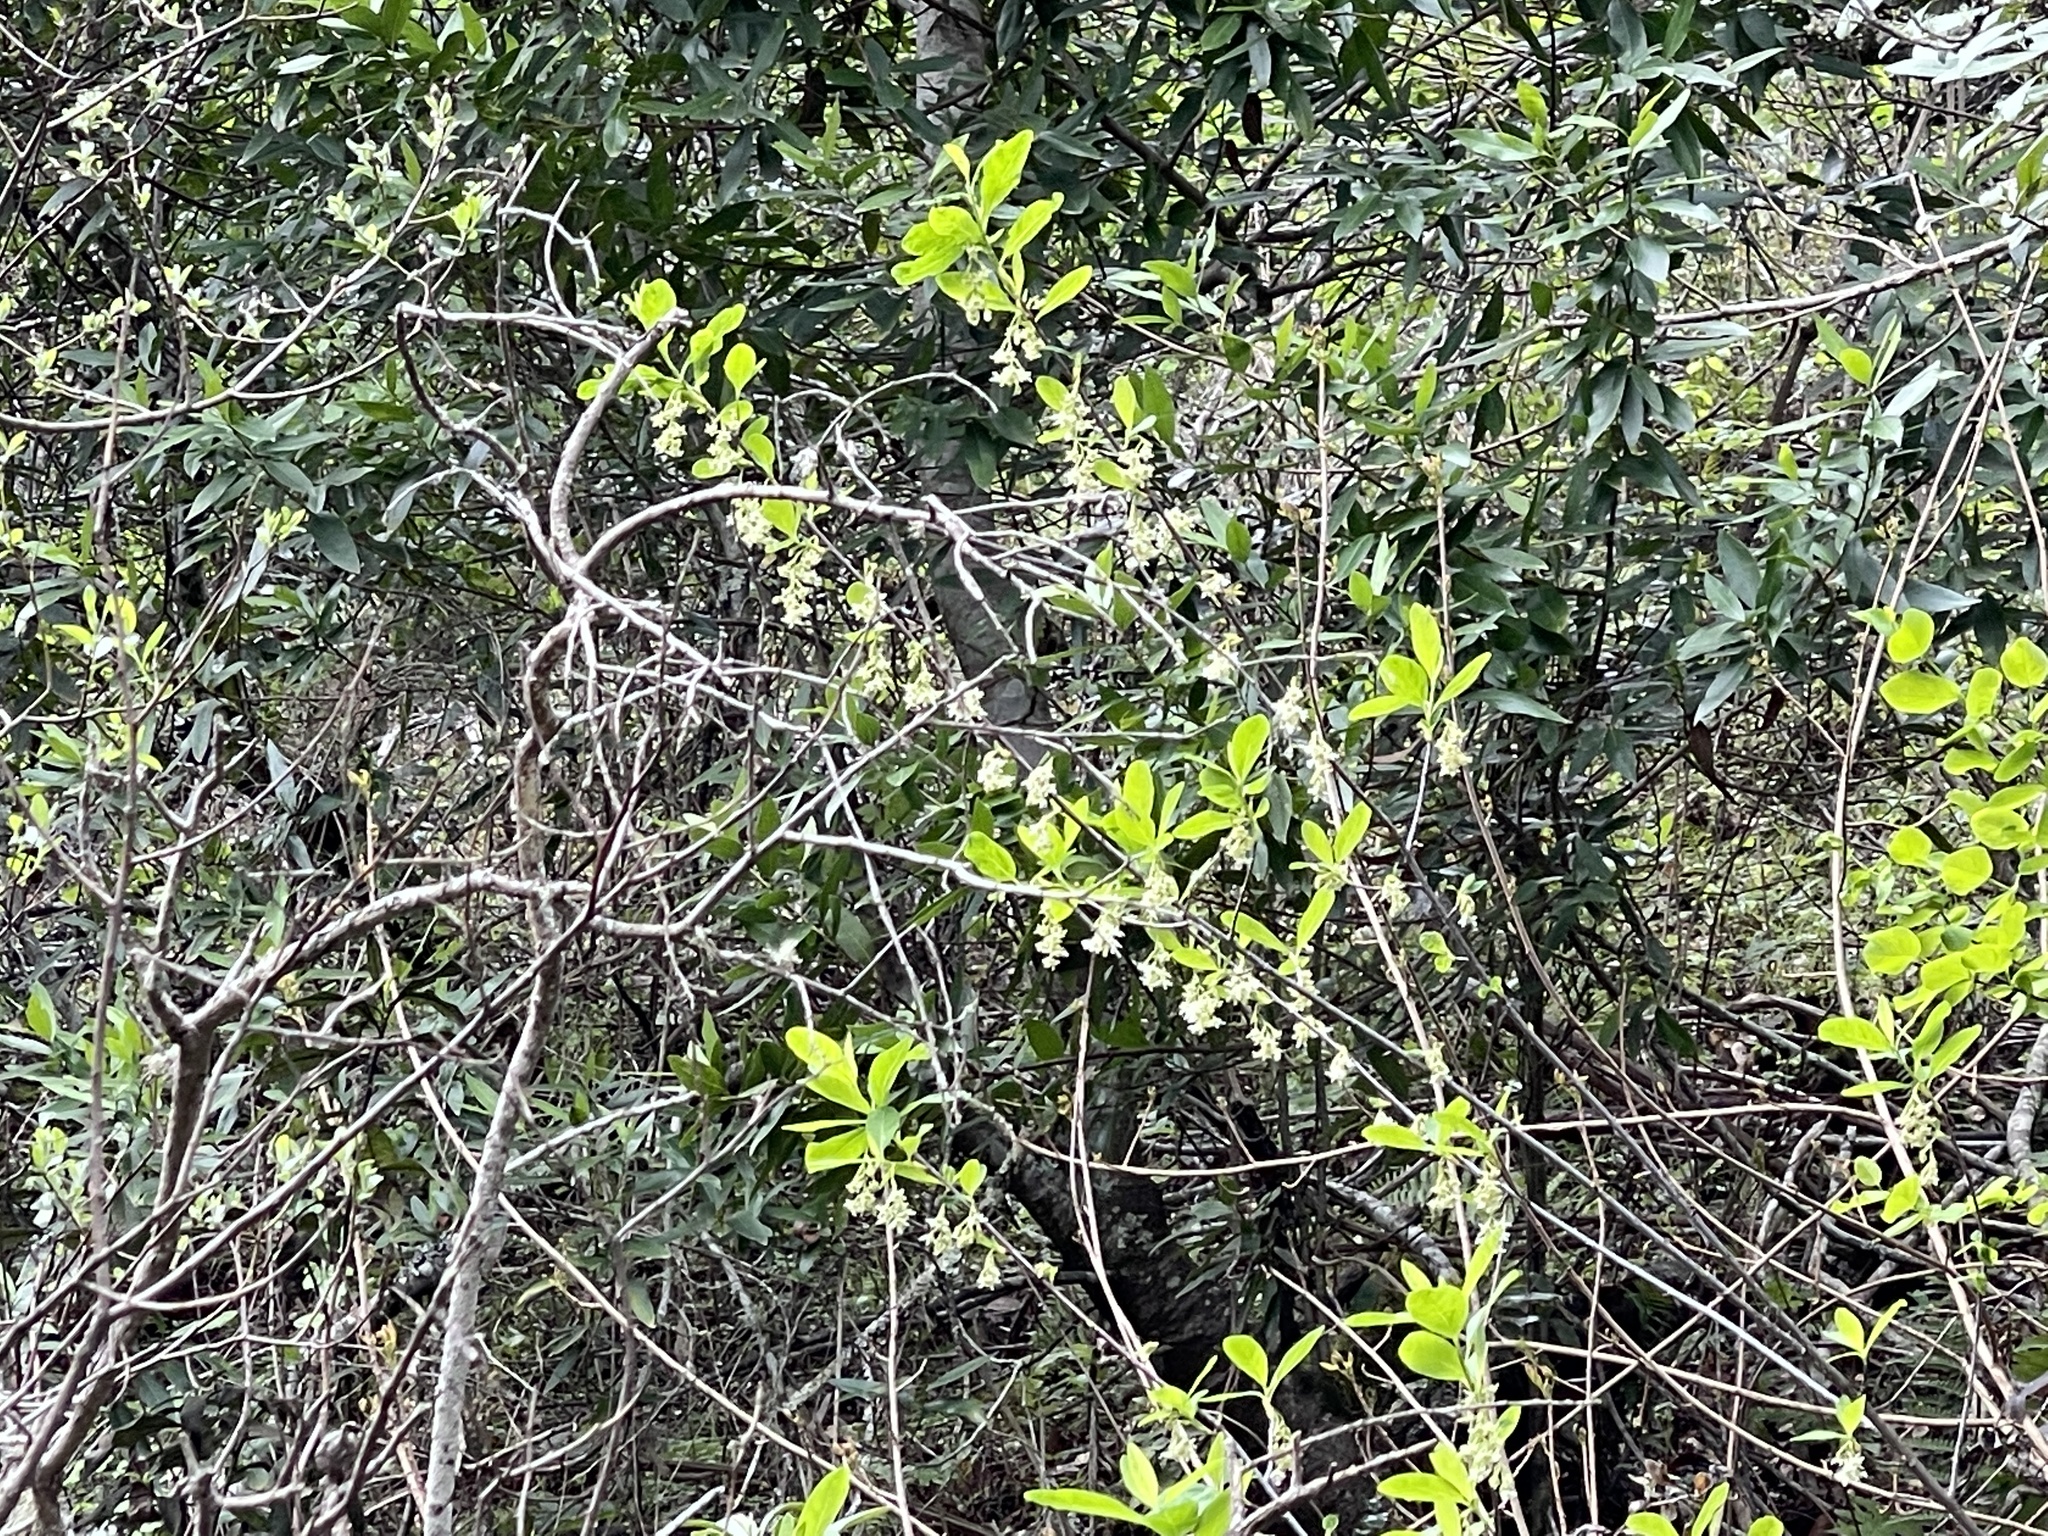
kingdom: Plantae
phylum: Tracheophyta
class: Magnoliopsida
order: Rosales
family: Rosaceae
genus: Oemleria
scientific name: Oemleria cerasiformis
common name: Osoberry
